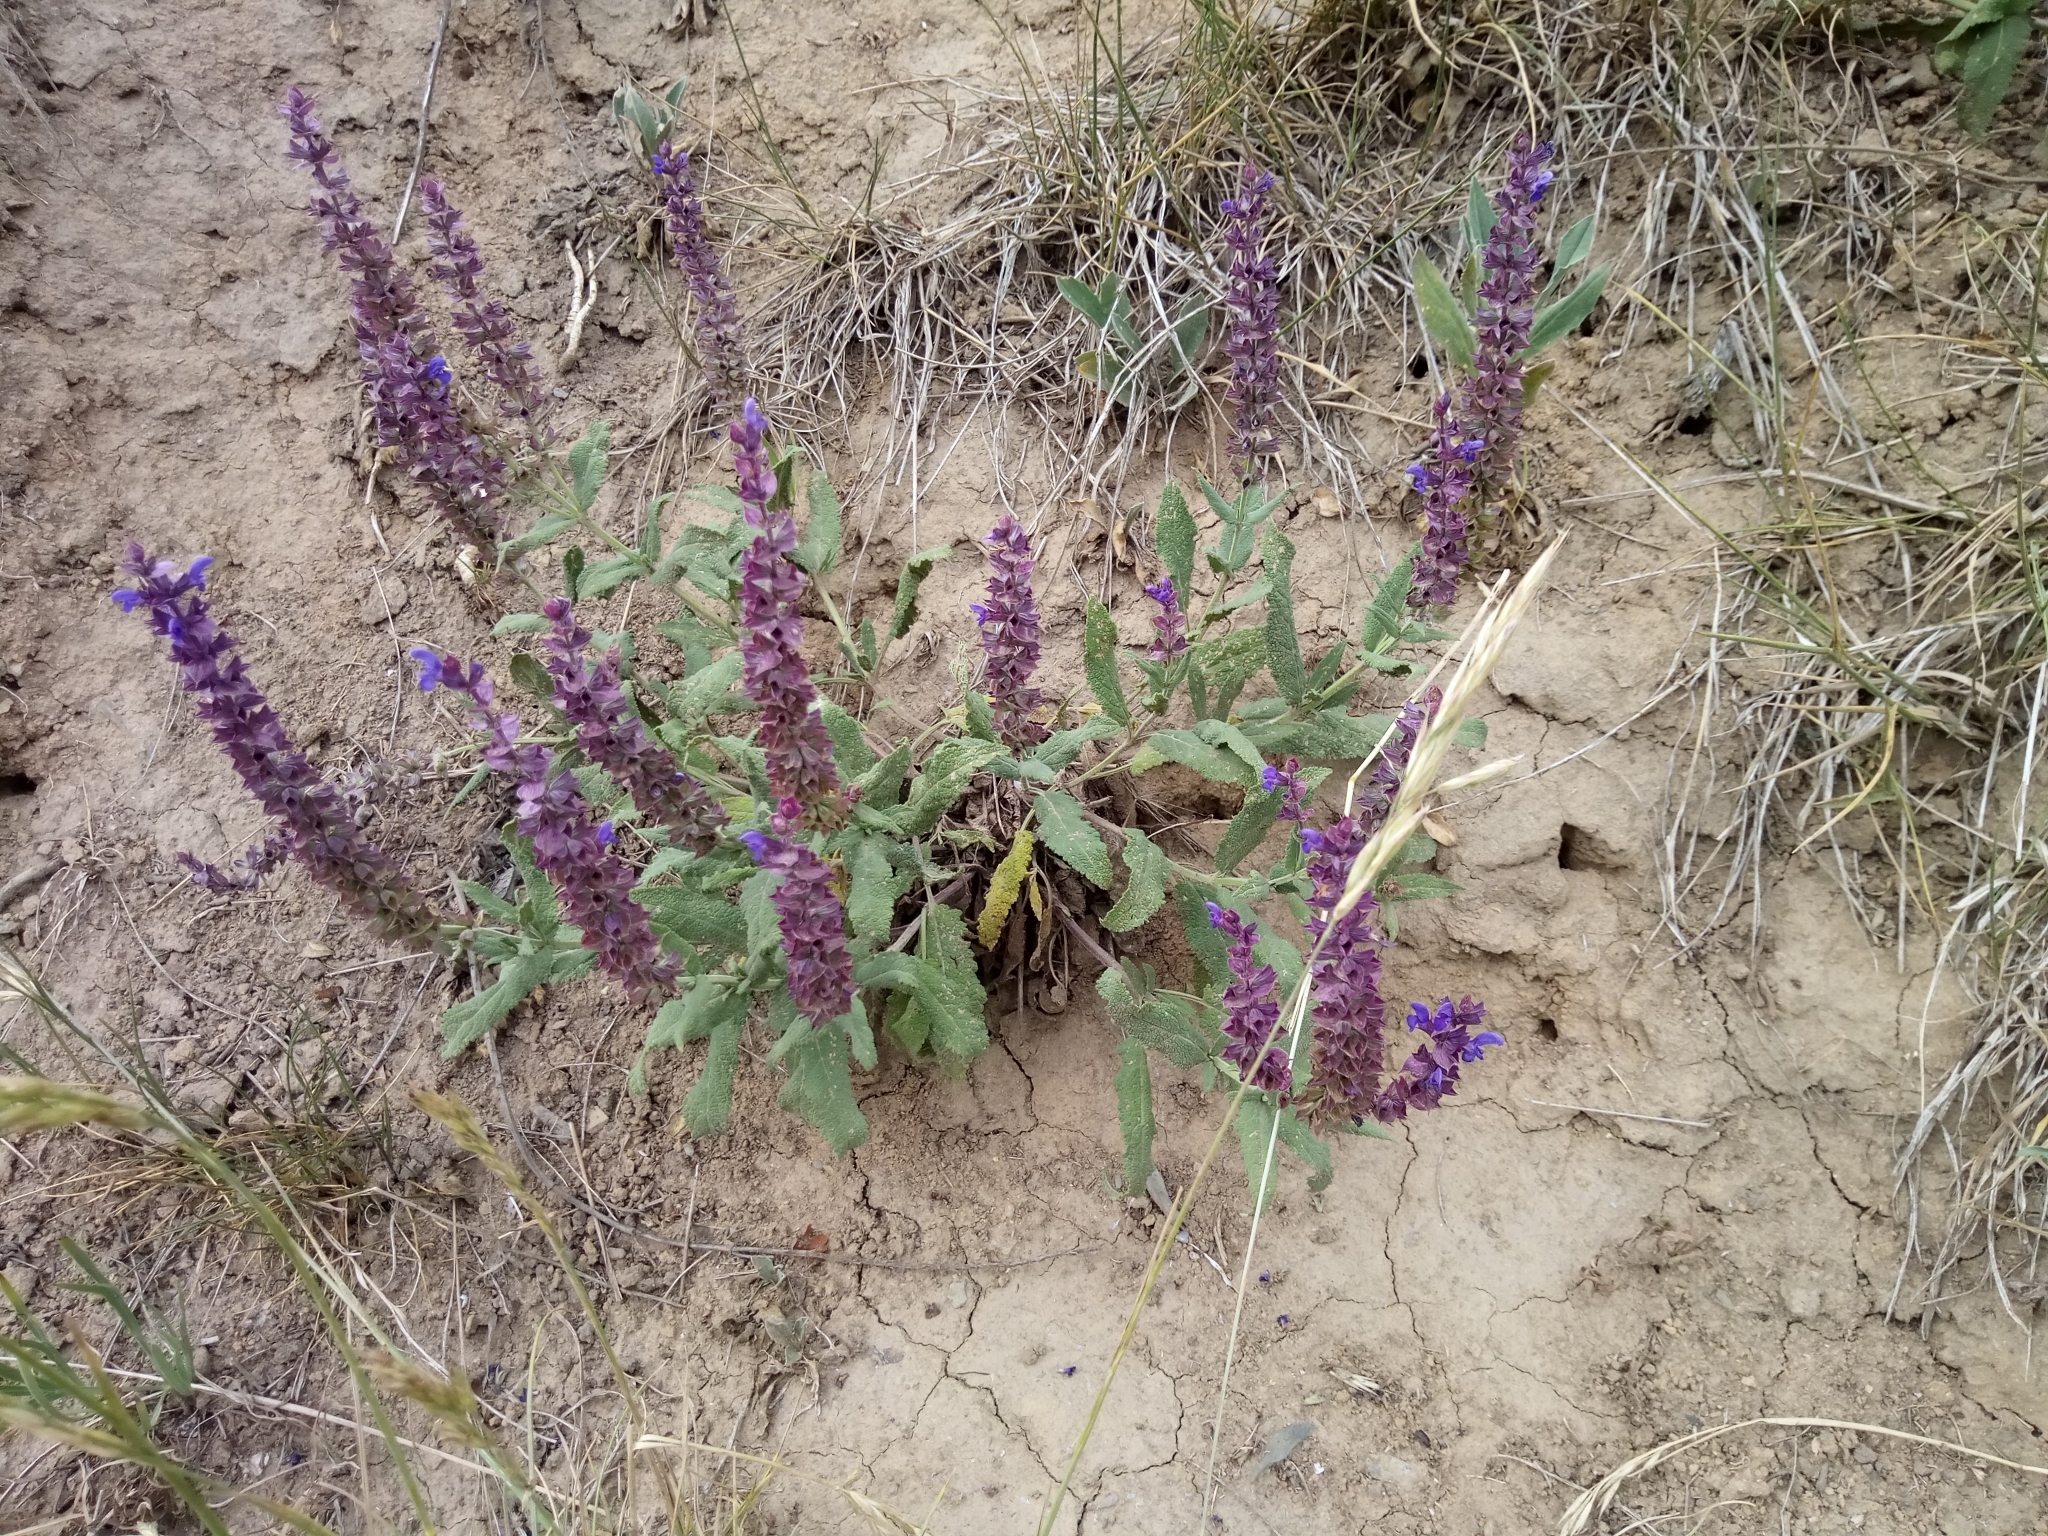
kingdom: Plantae
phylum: Tracheophyta
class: Magnoliopsida
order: Lamiales
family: Lamiaceae
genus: Salvia
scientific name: Salvia nemorosa
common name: Balkan clary
